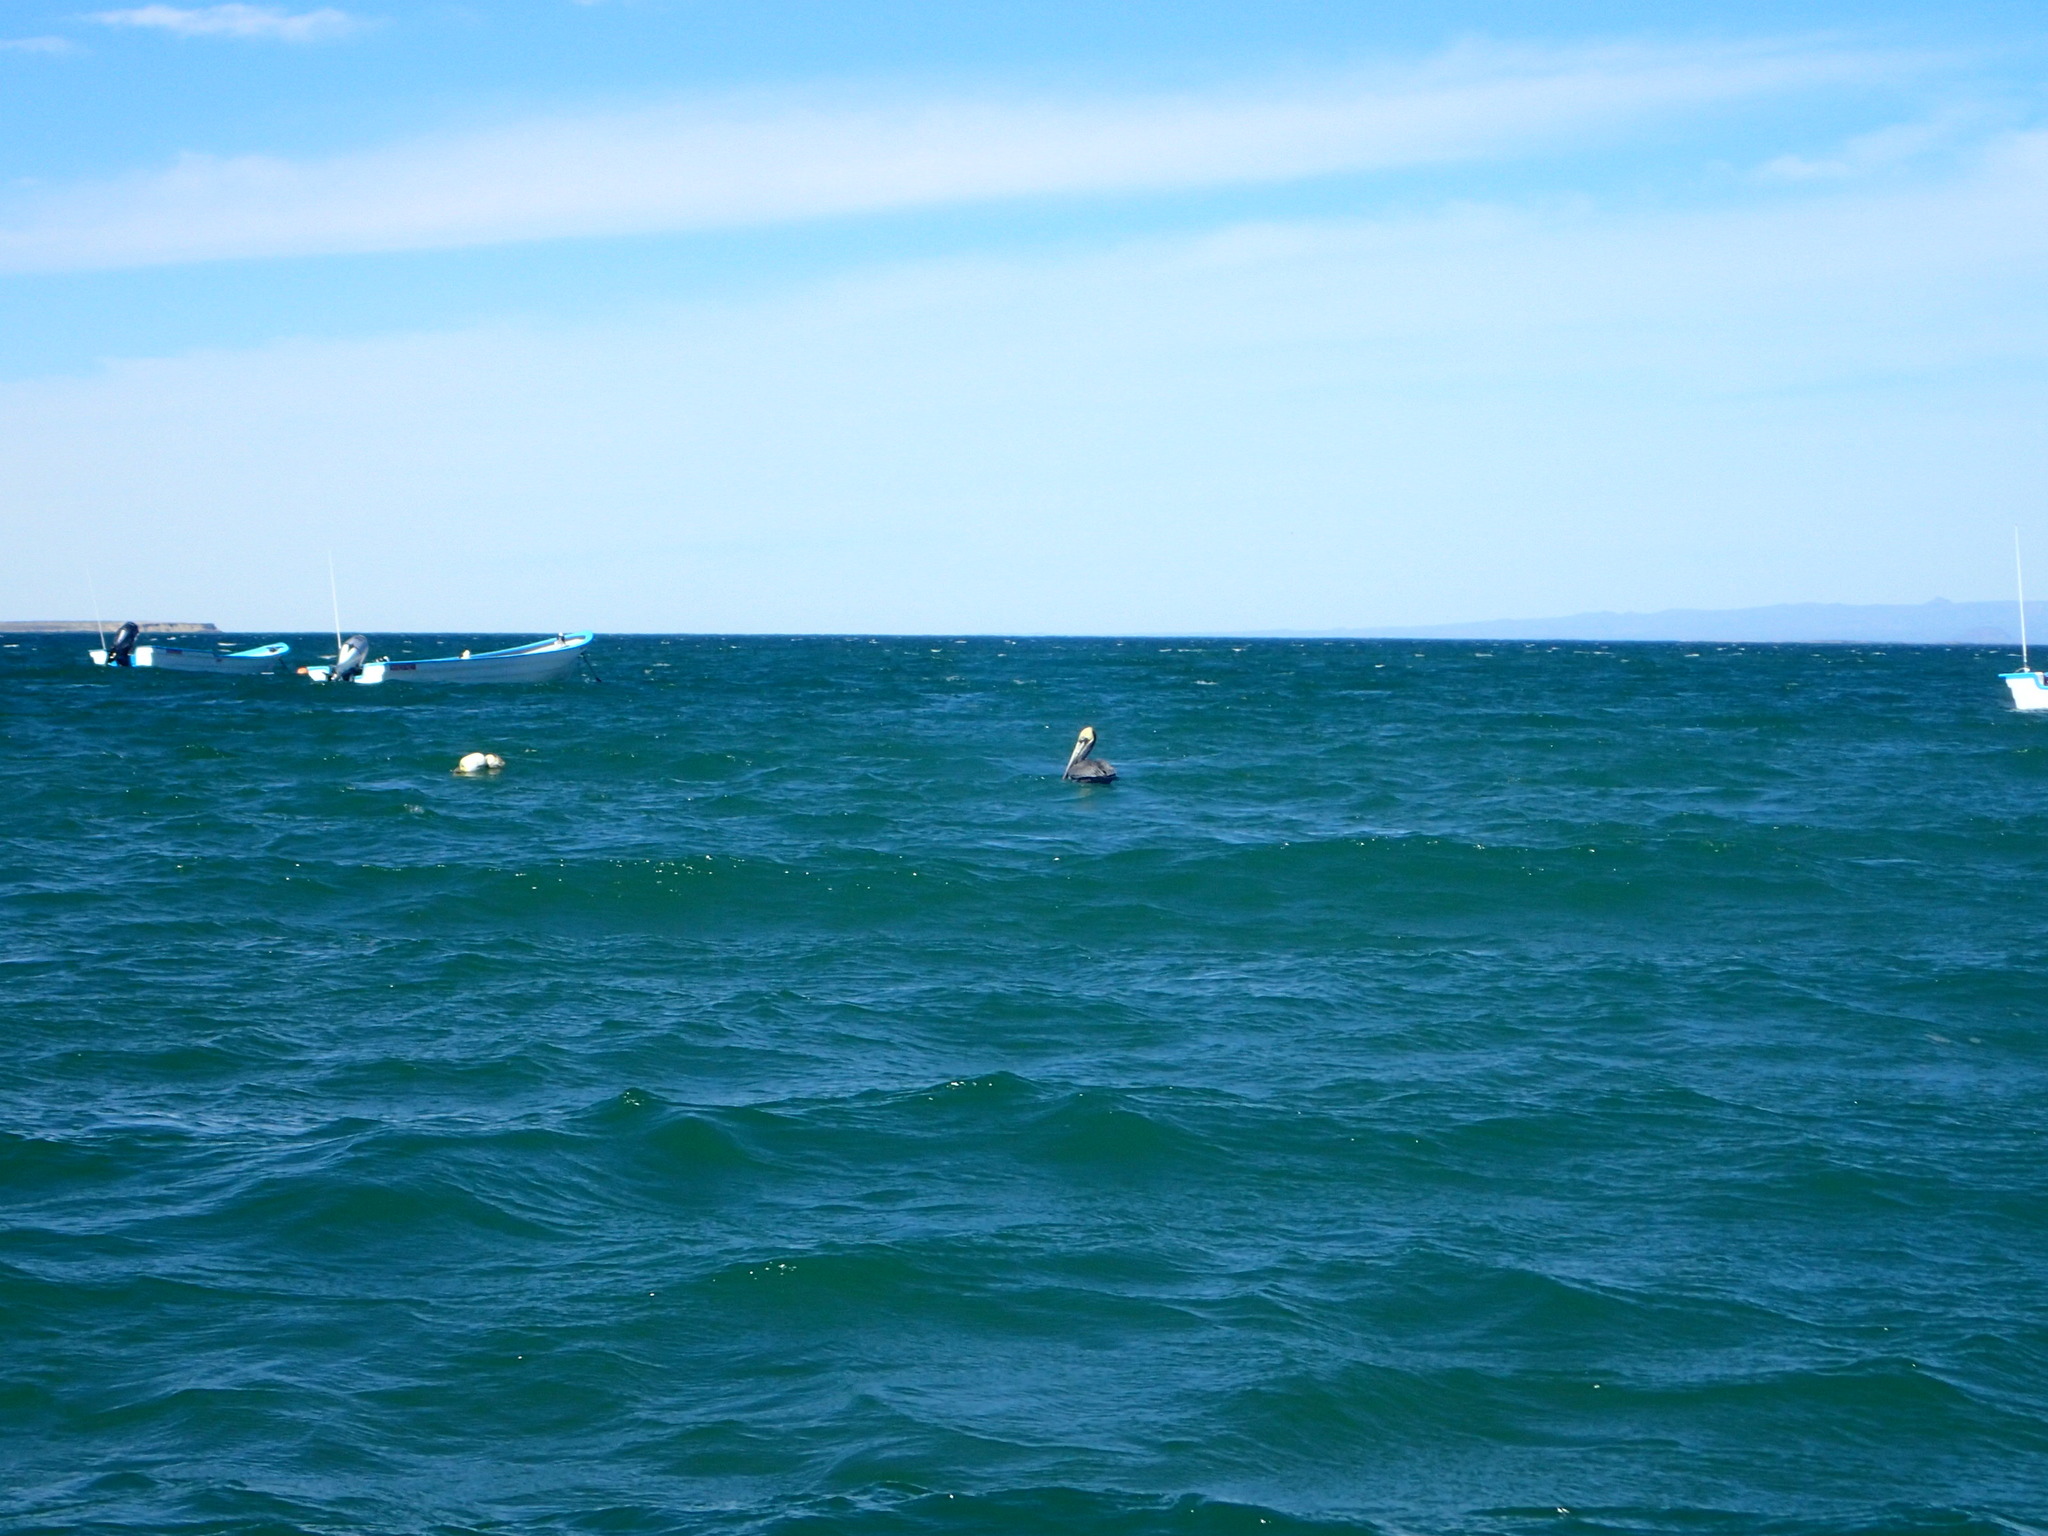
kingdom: Animalia
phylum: Chordata
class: Aves
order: Pelecaniformes
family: Pelecanidae
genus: Pelecanus
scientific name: Pelecanus occidentalis
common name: Brown pelican
